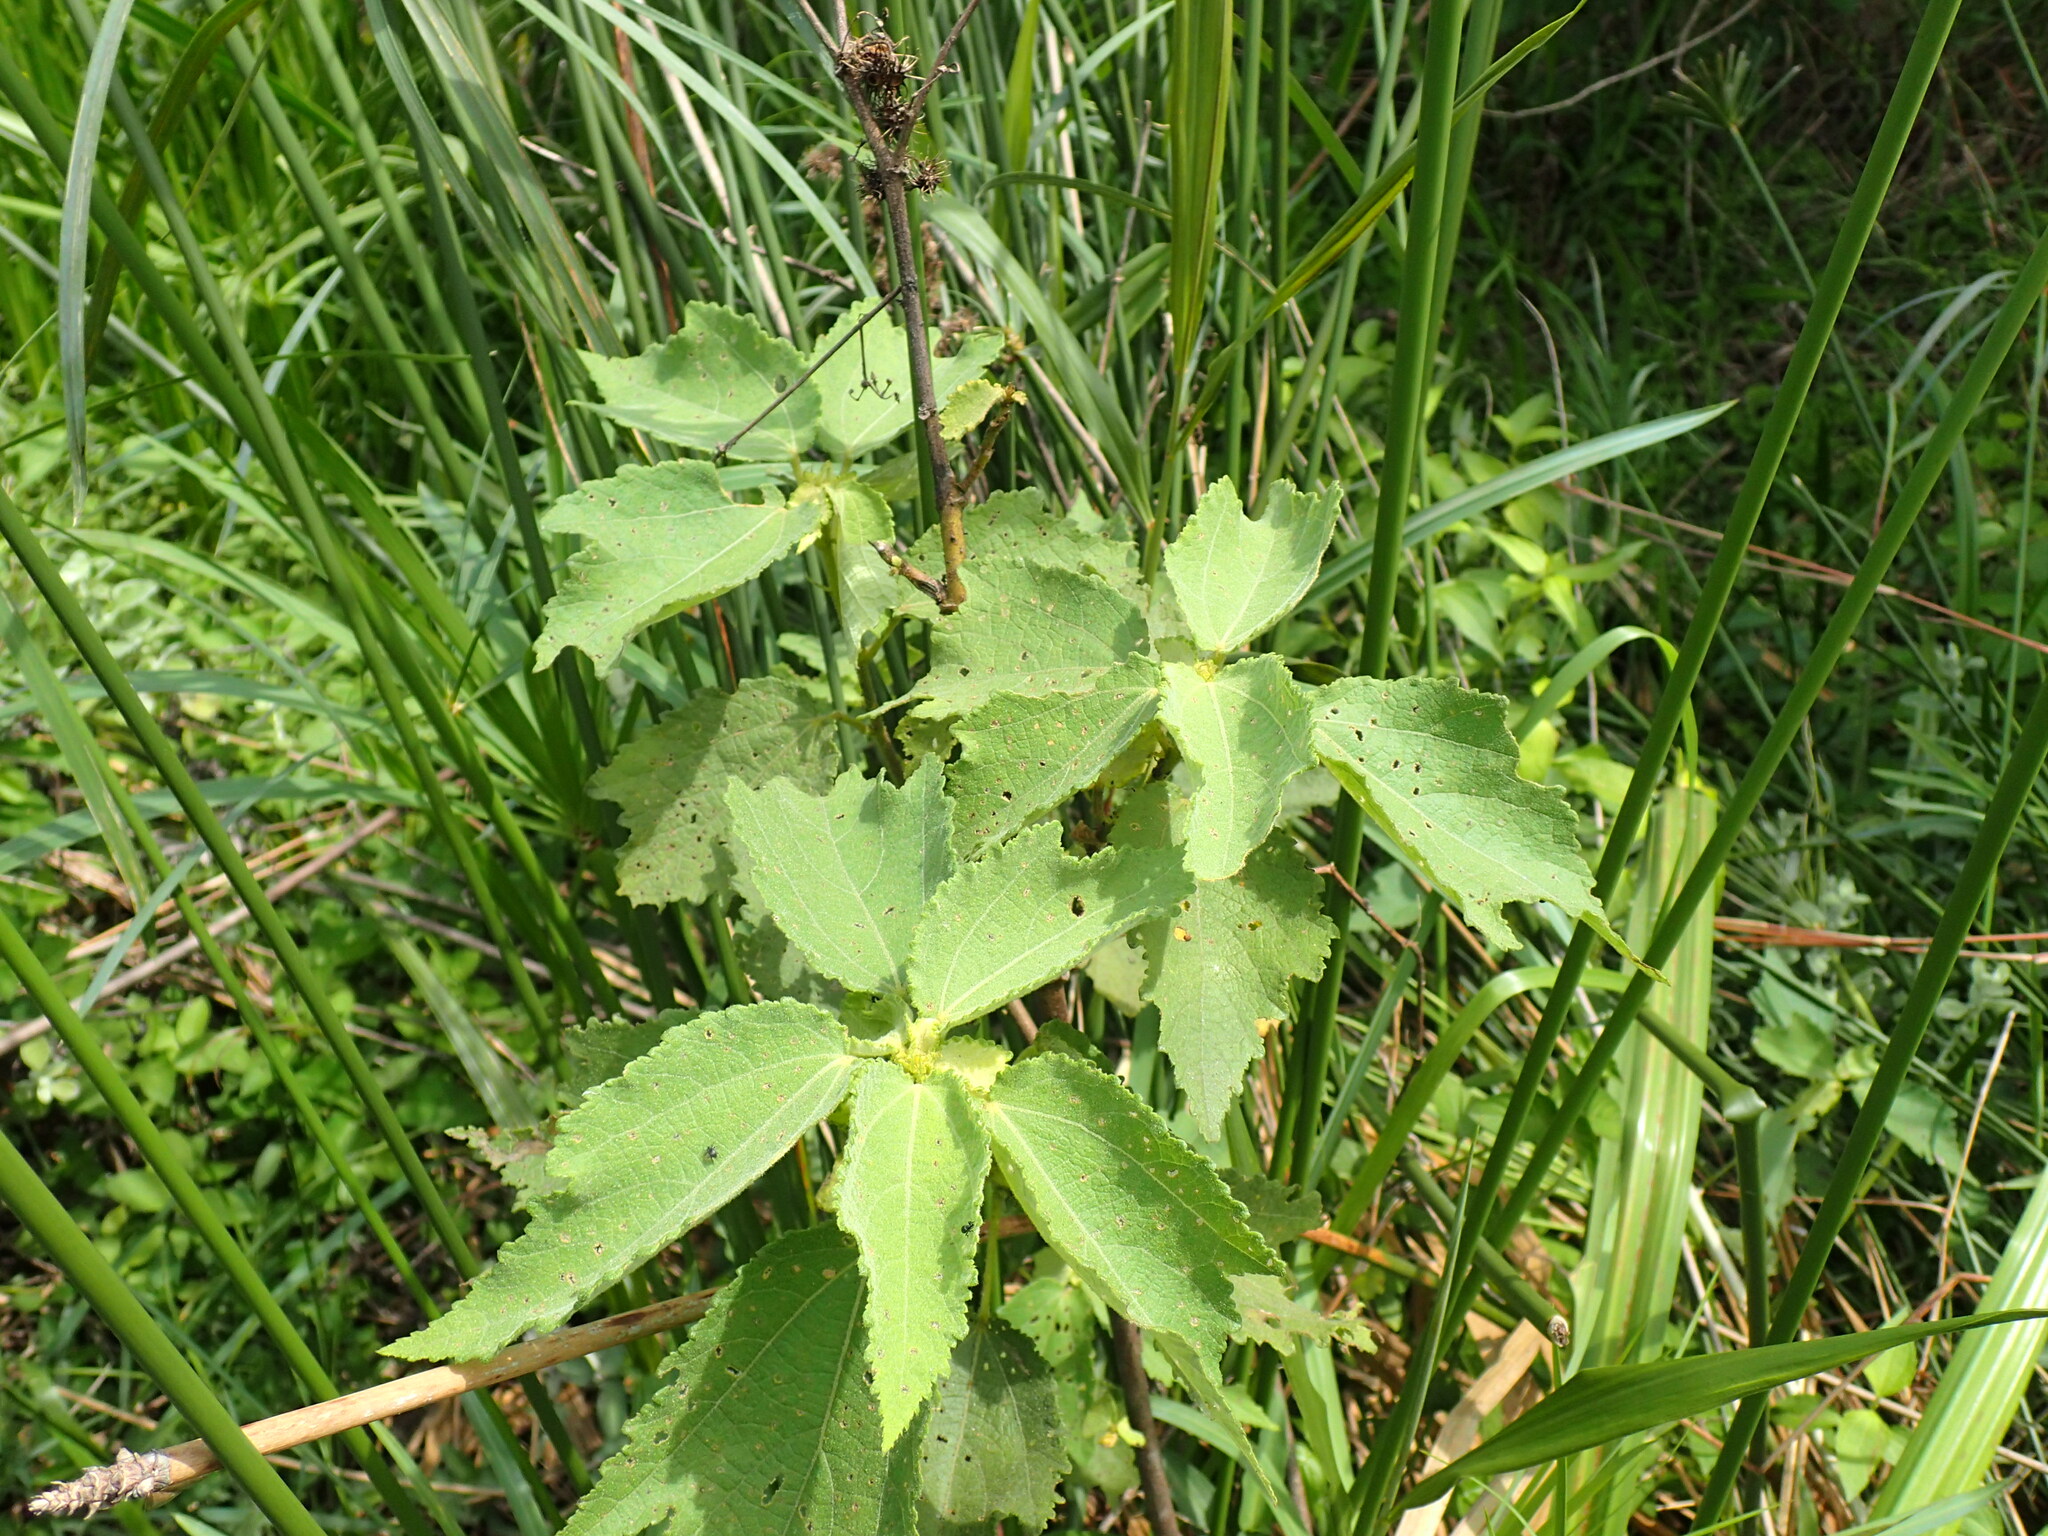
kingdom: Plantae
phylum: Tracheophyta
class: Magnoliopsida
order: Malvales
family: Malvaceae
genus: Triumfetta
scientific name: Triumfetta pilosa
